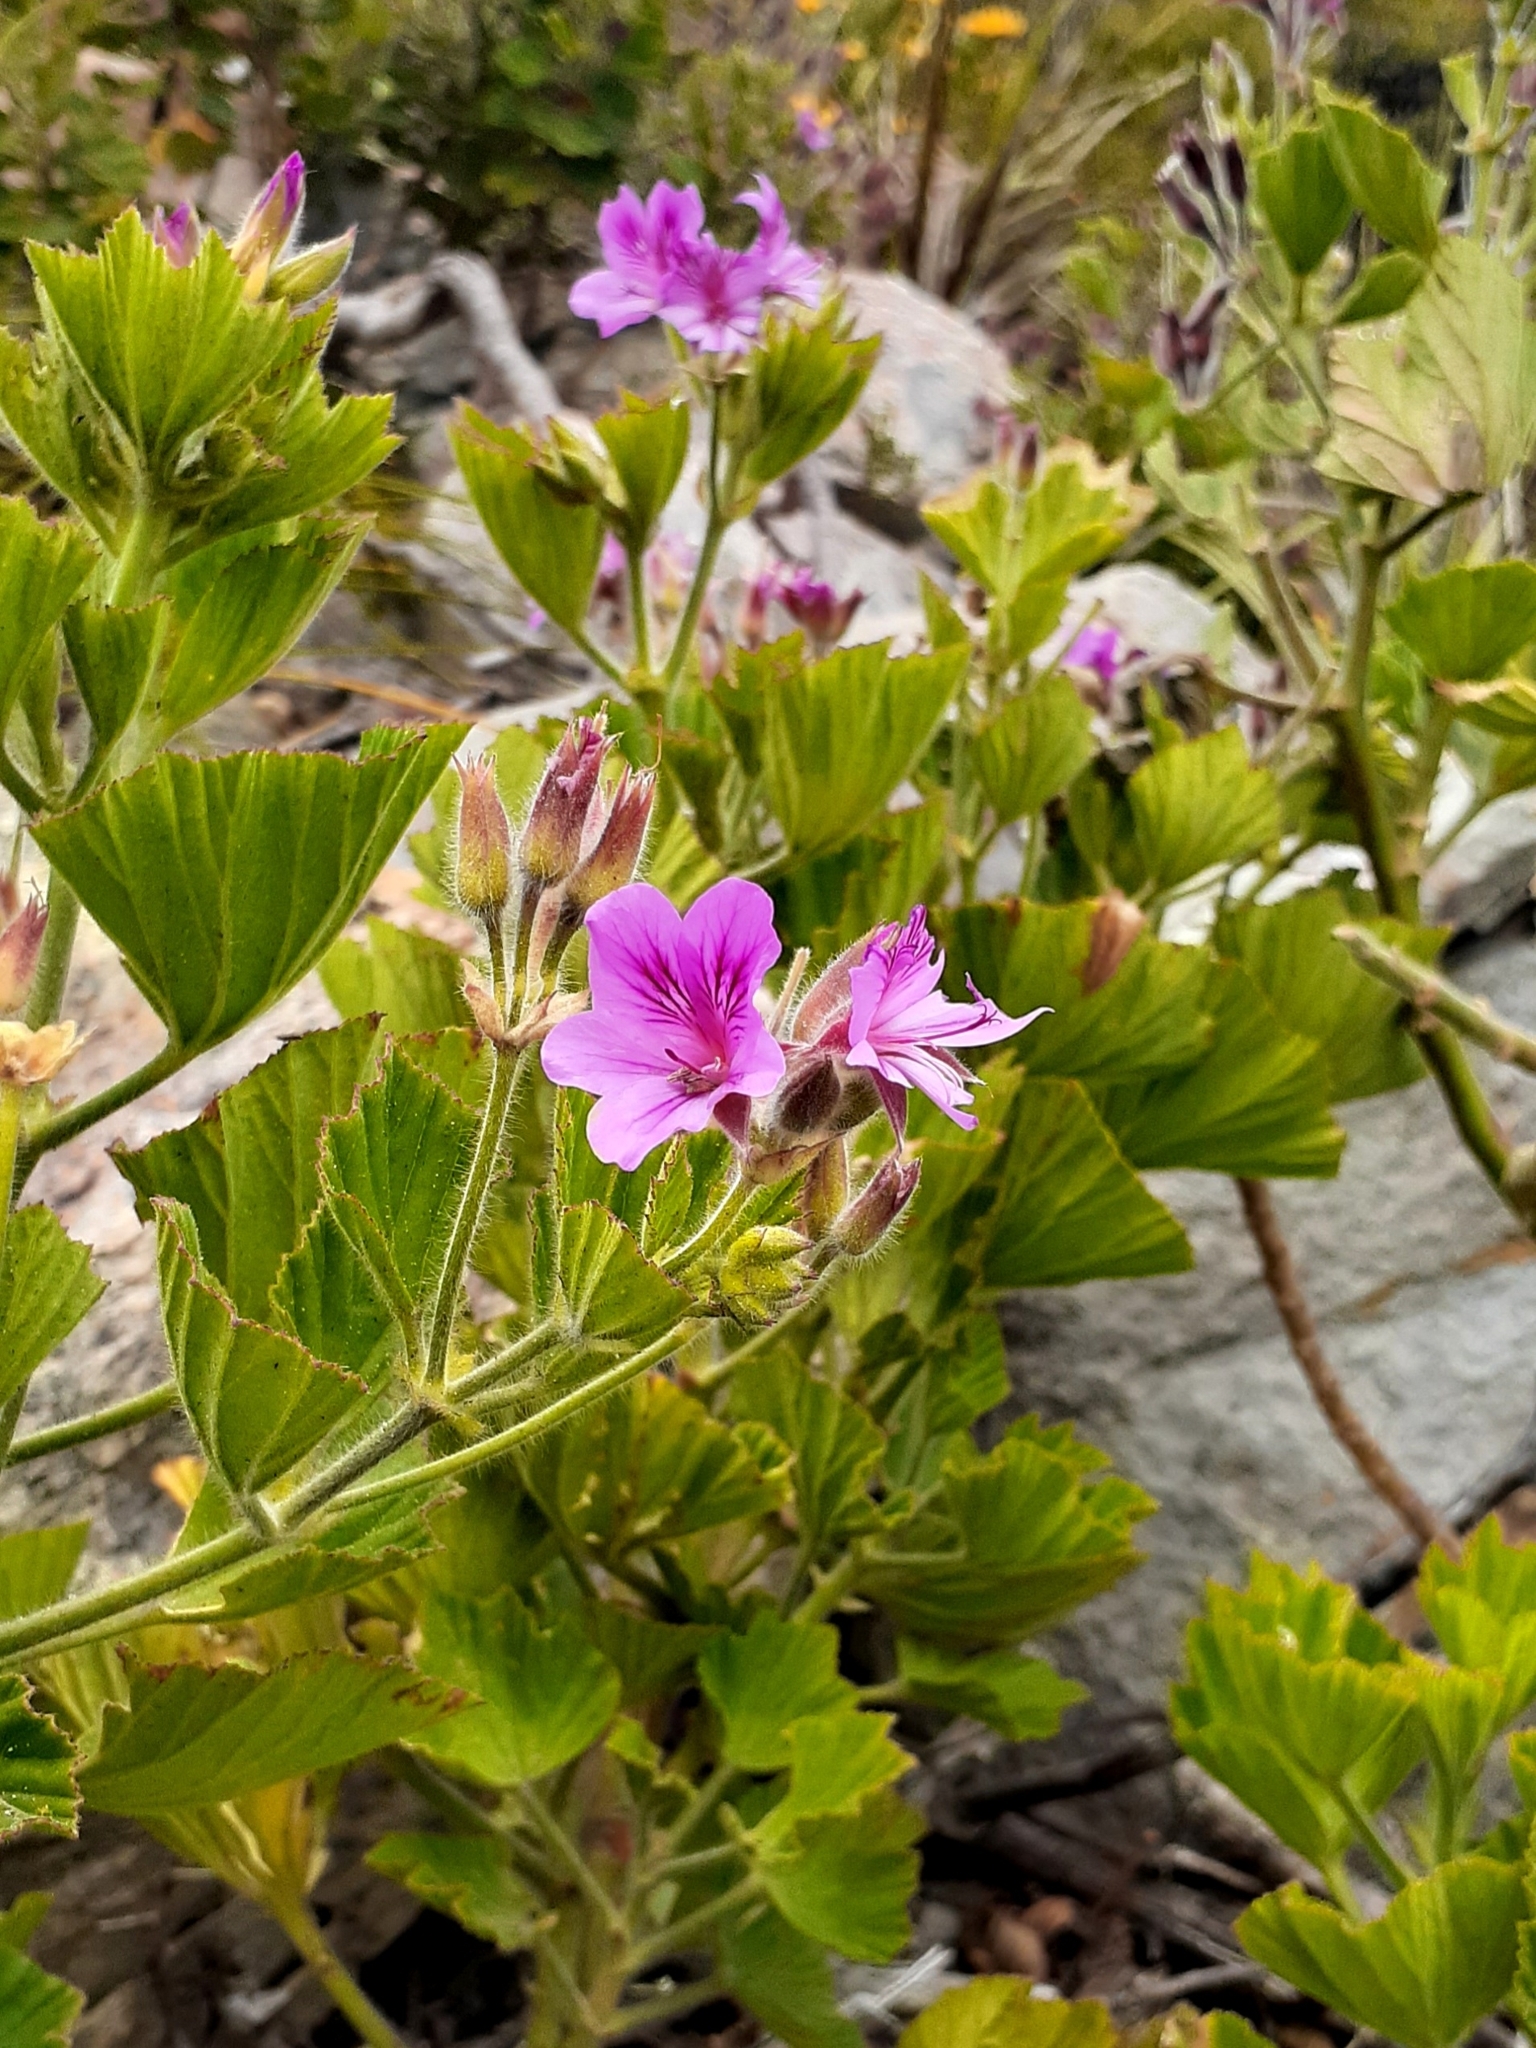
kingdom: Plantae
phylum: Tracheophyta
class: Magnoliopsida
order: Geraniales
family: Geraniaceae
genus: Pelargonium
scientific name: Pelargonium cucullatum
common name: Tree pelargonium
